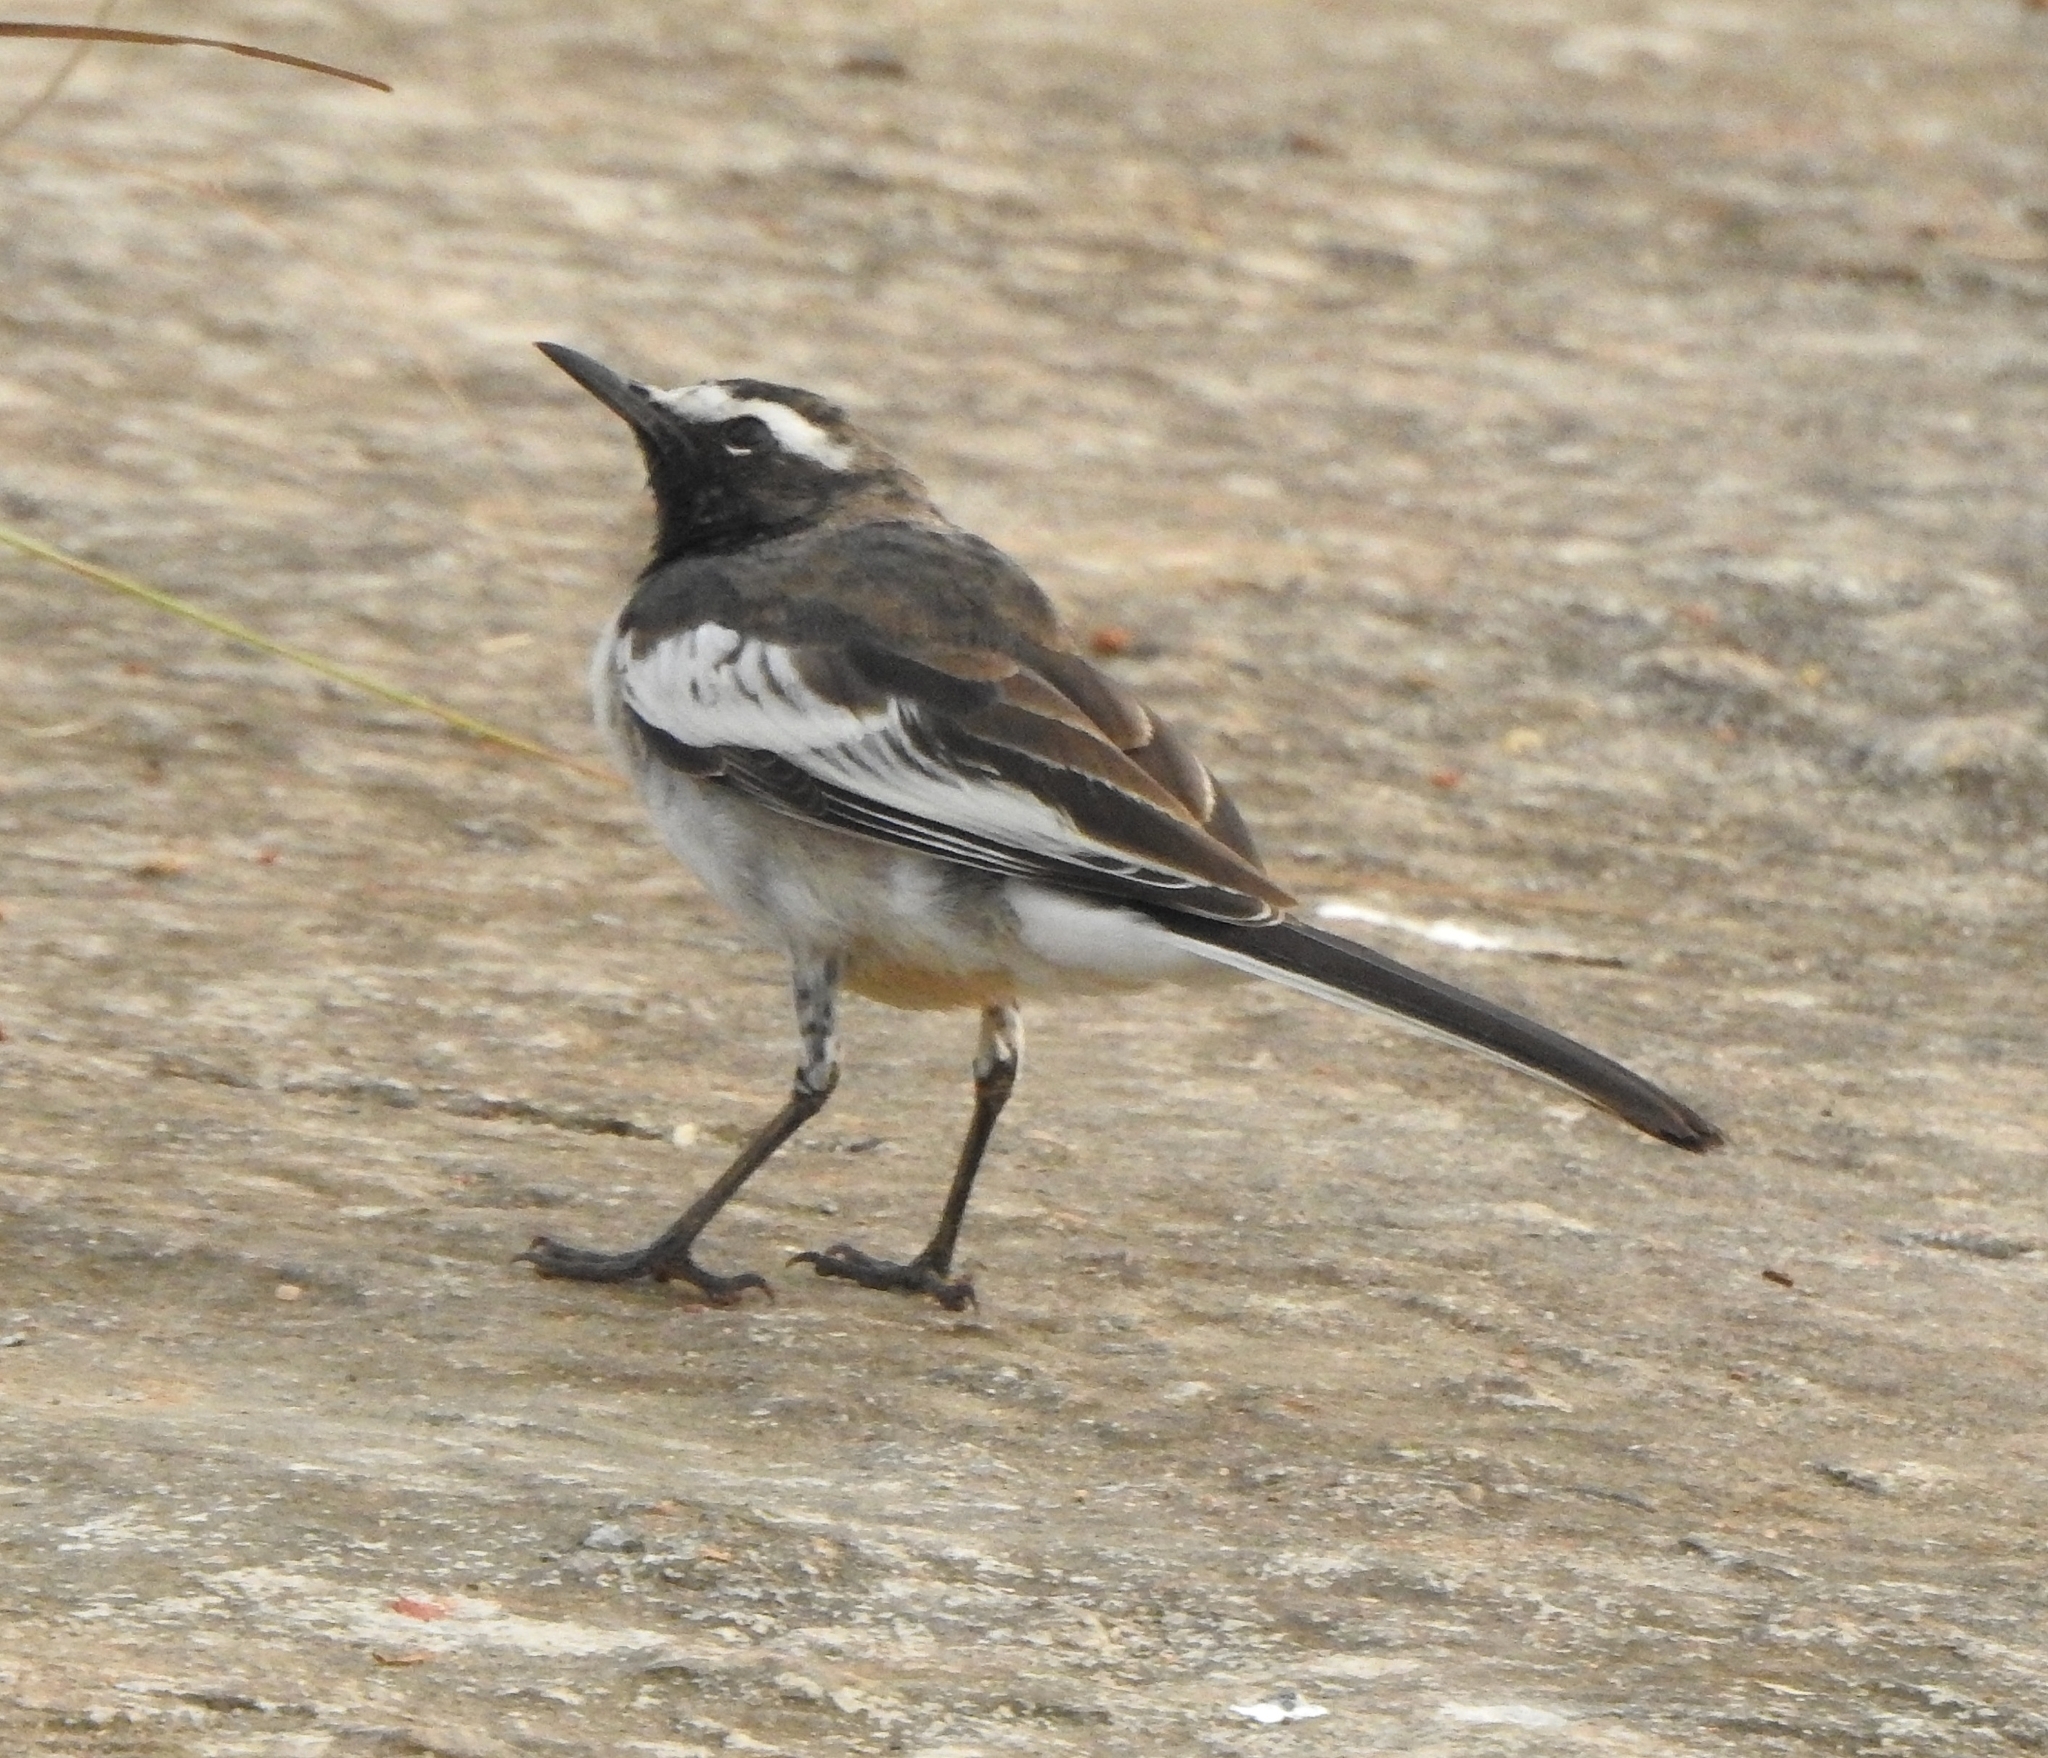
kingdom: Animalia
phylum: Chordata
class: Aves
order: Passeriformes
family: Motacillidae
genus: Motacilla
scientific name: Motacilla maderaspatensis
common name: White-browed wagtail
